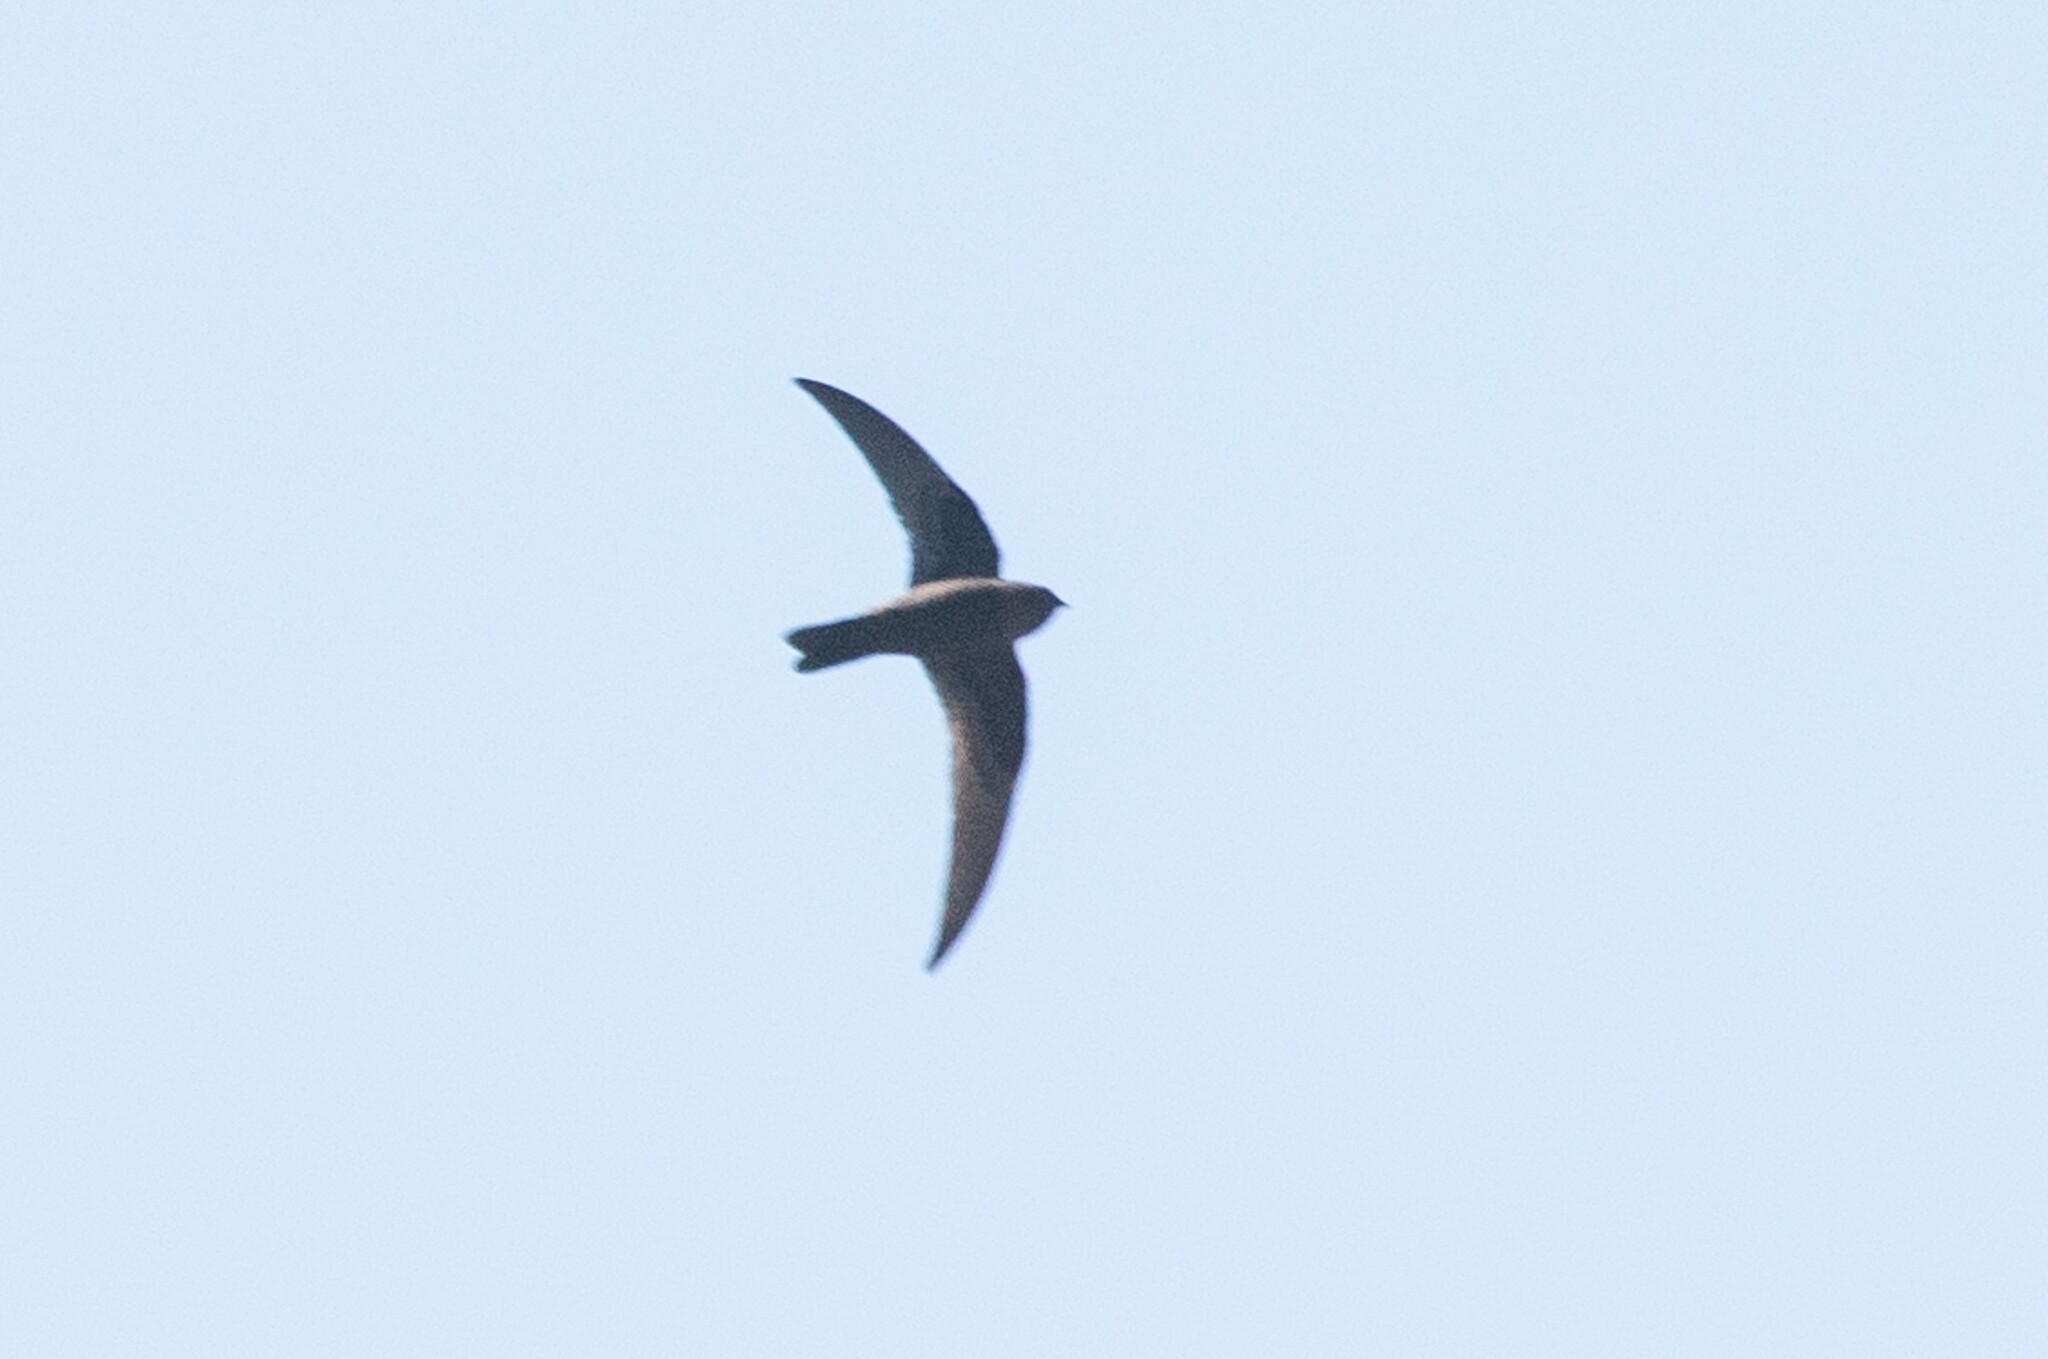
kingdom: Animalia
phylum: Chordata
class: Aves
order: Apodiformes
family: Apodidae
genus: Cypseloides
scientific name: Cypseloides niger
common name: Black swift
